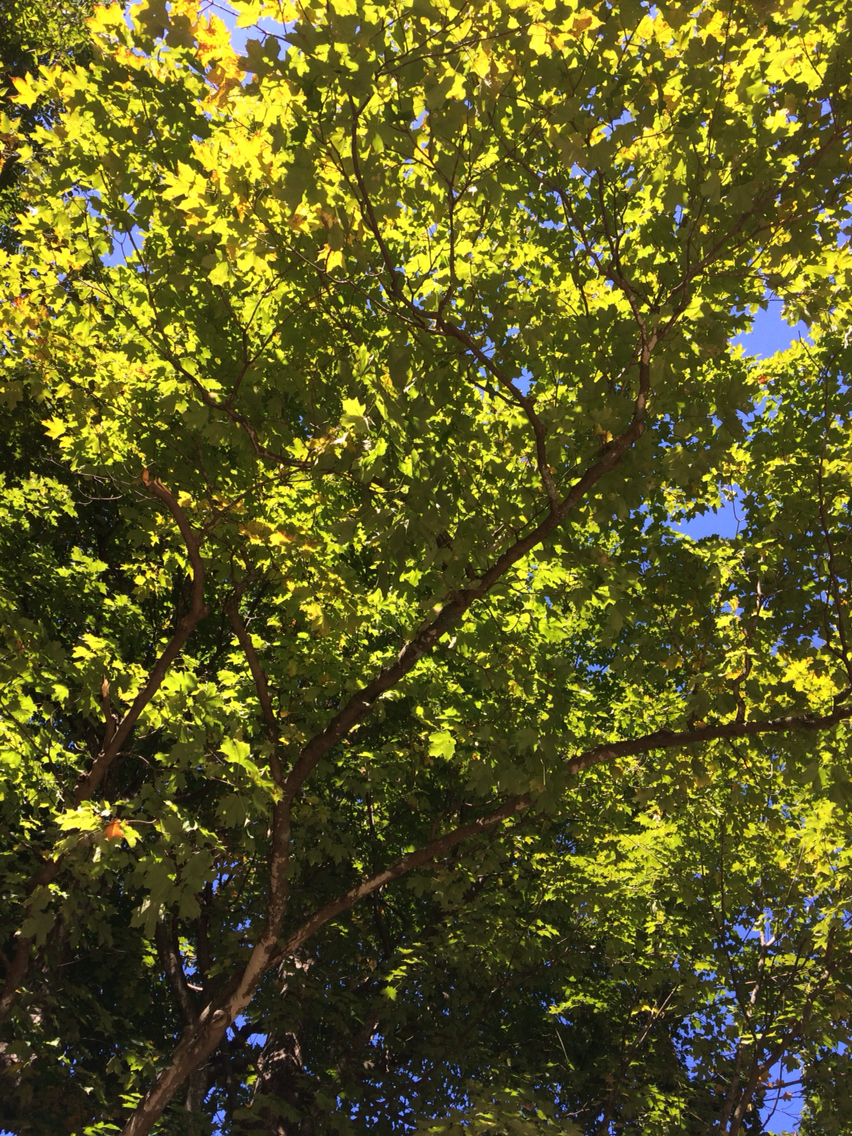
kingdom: Plantae
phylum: Tracheophyta
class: Magnoliopsida
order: Sapindales
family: Sapindaceae
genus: Acer
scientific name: Acer saccharum
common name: Sugar maple
